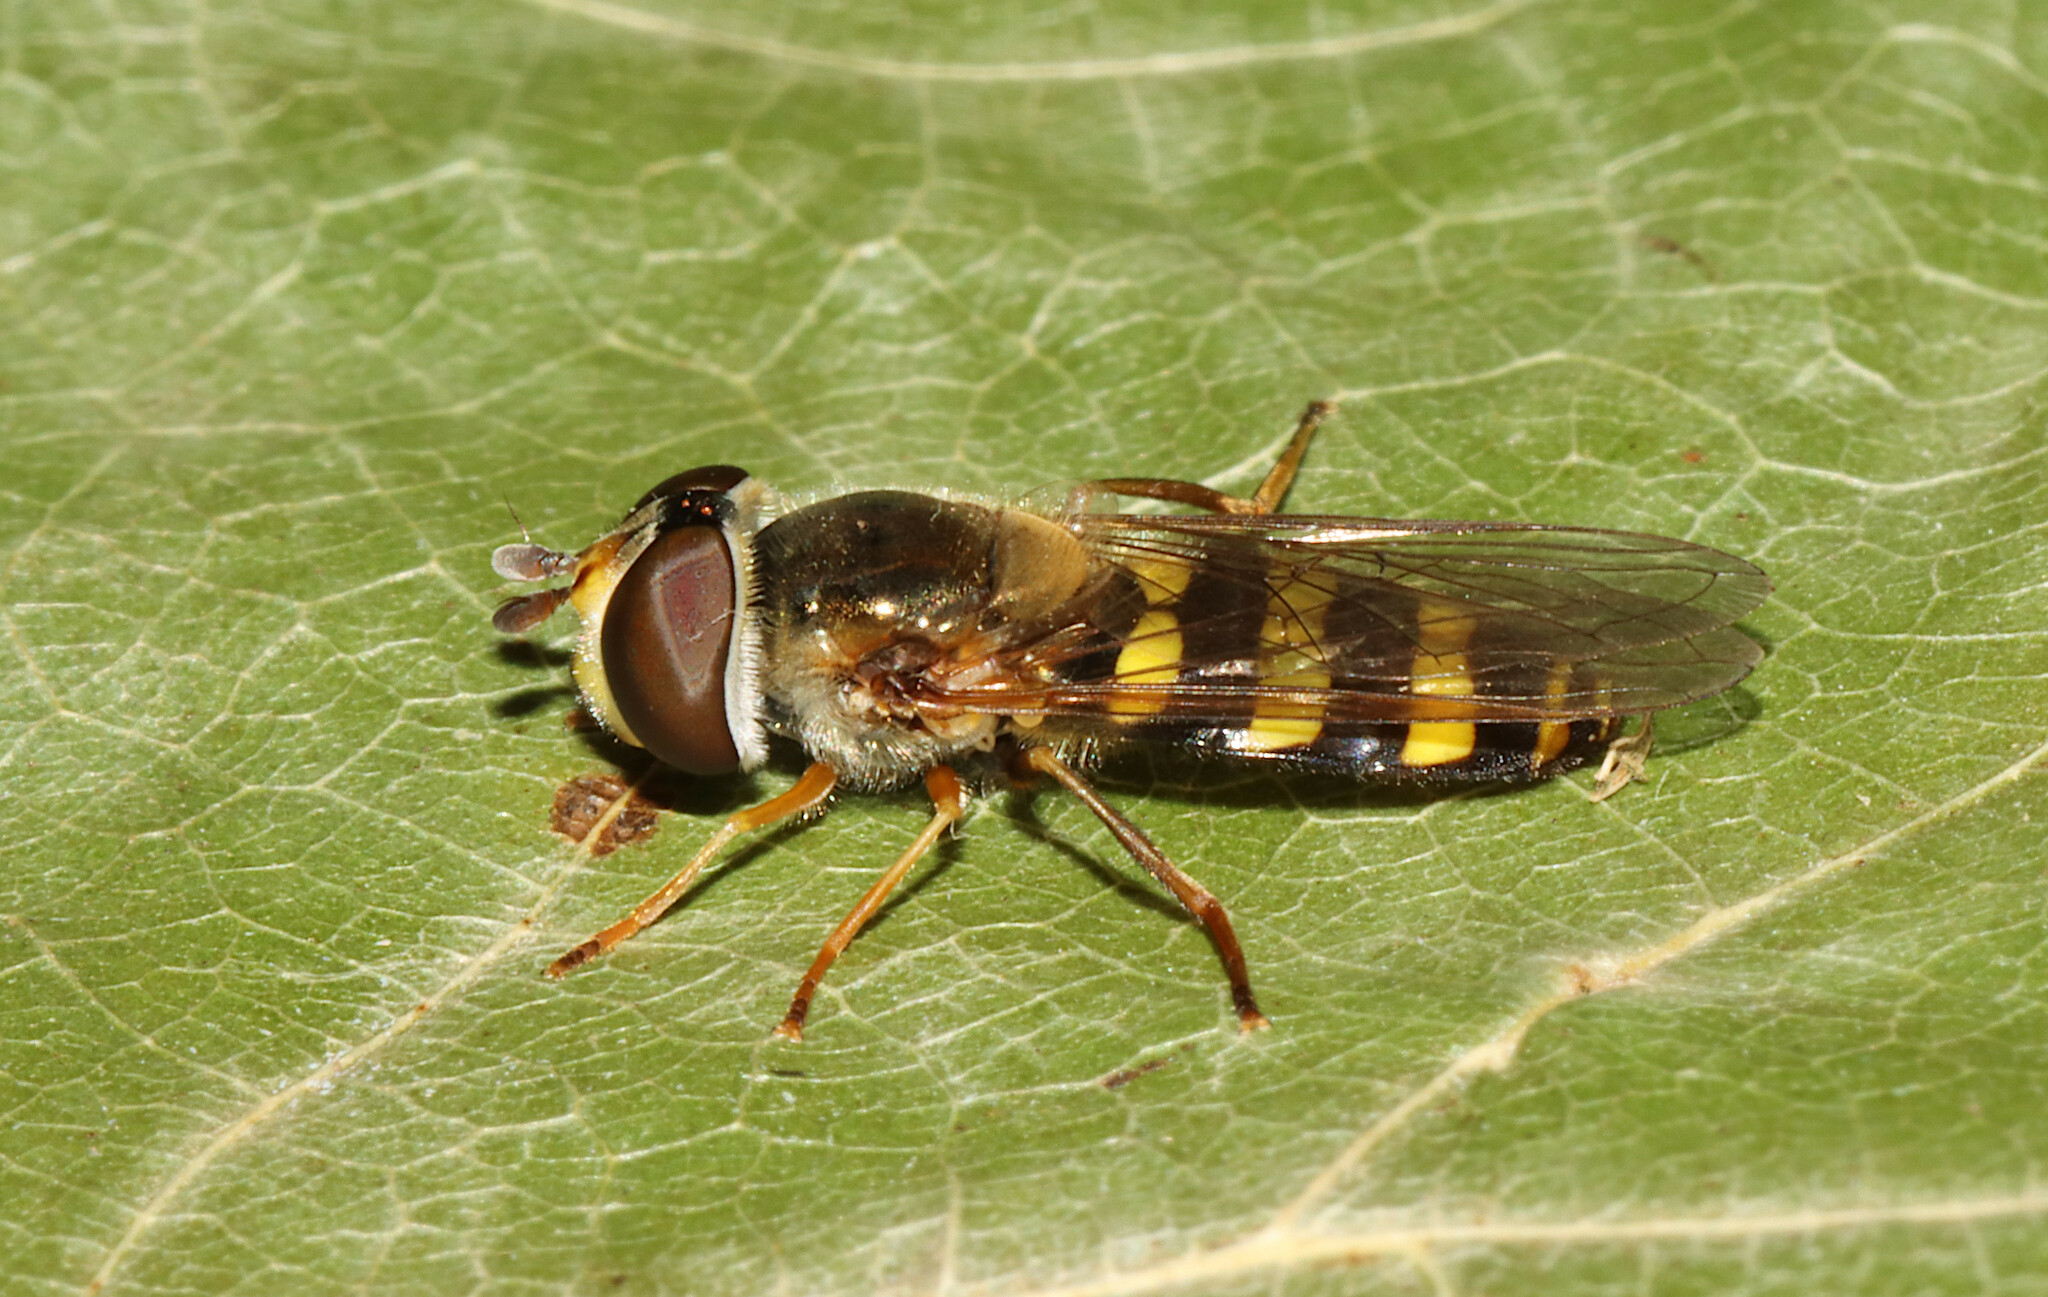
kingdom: Animalia
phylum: Arthropoda
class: Insecta
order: Diptera
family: Syrphidae
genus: Eupeodes
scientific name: Eupeodes
